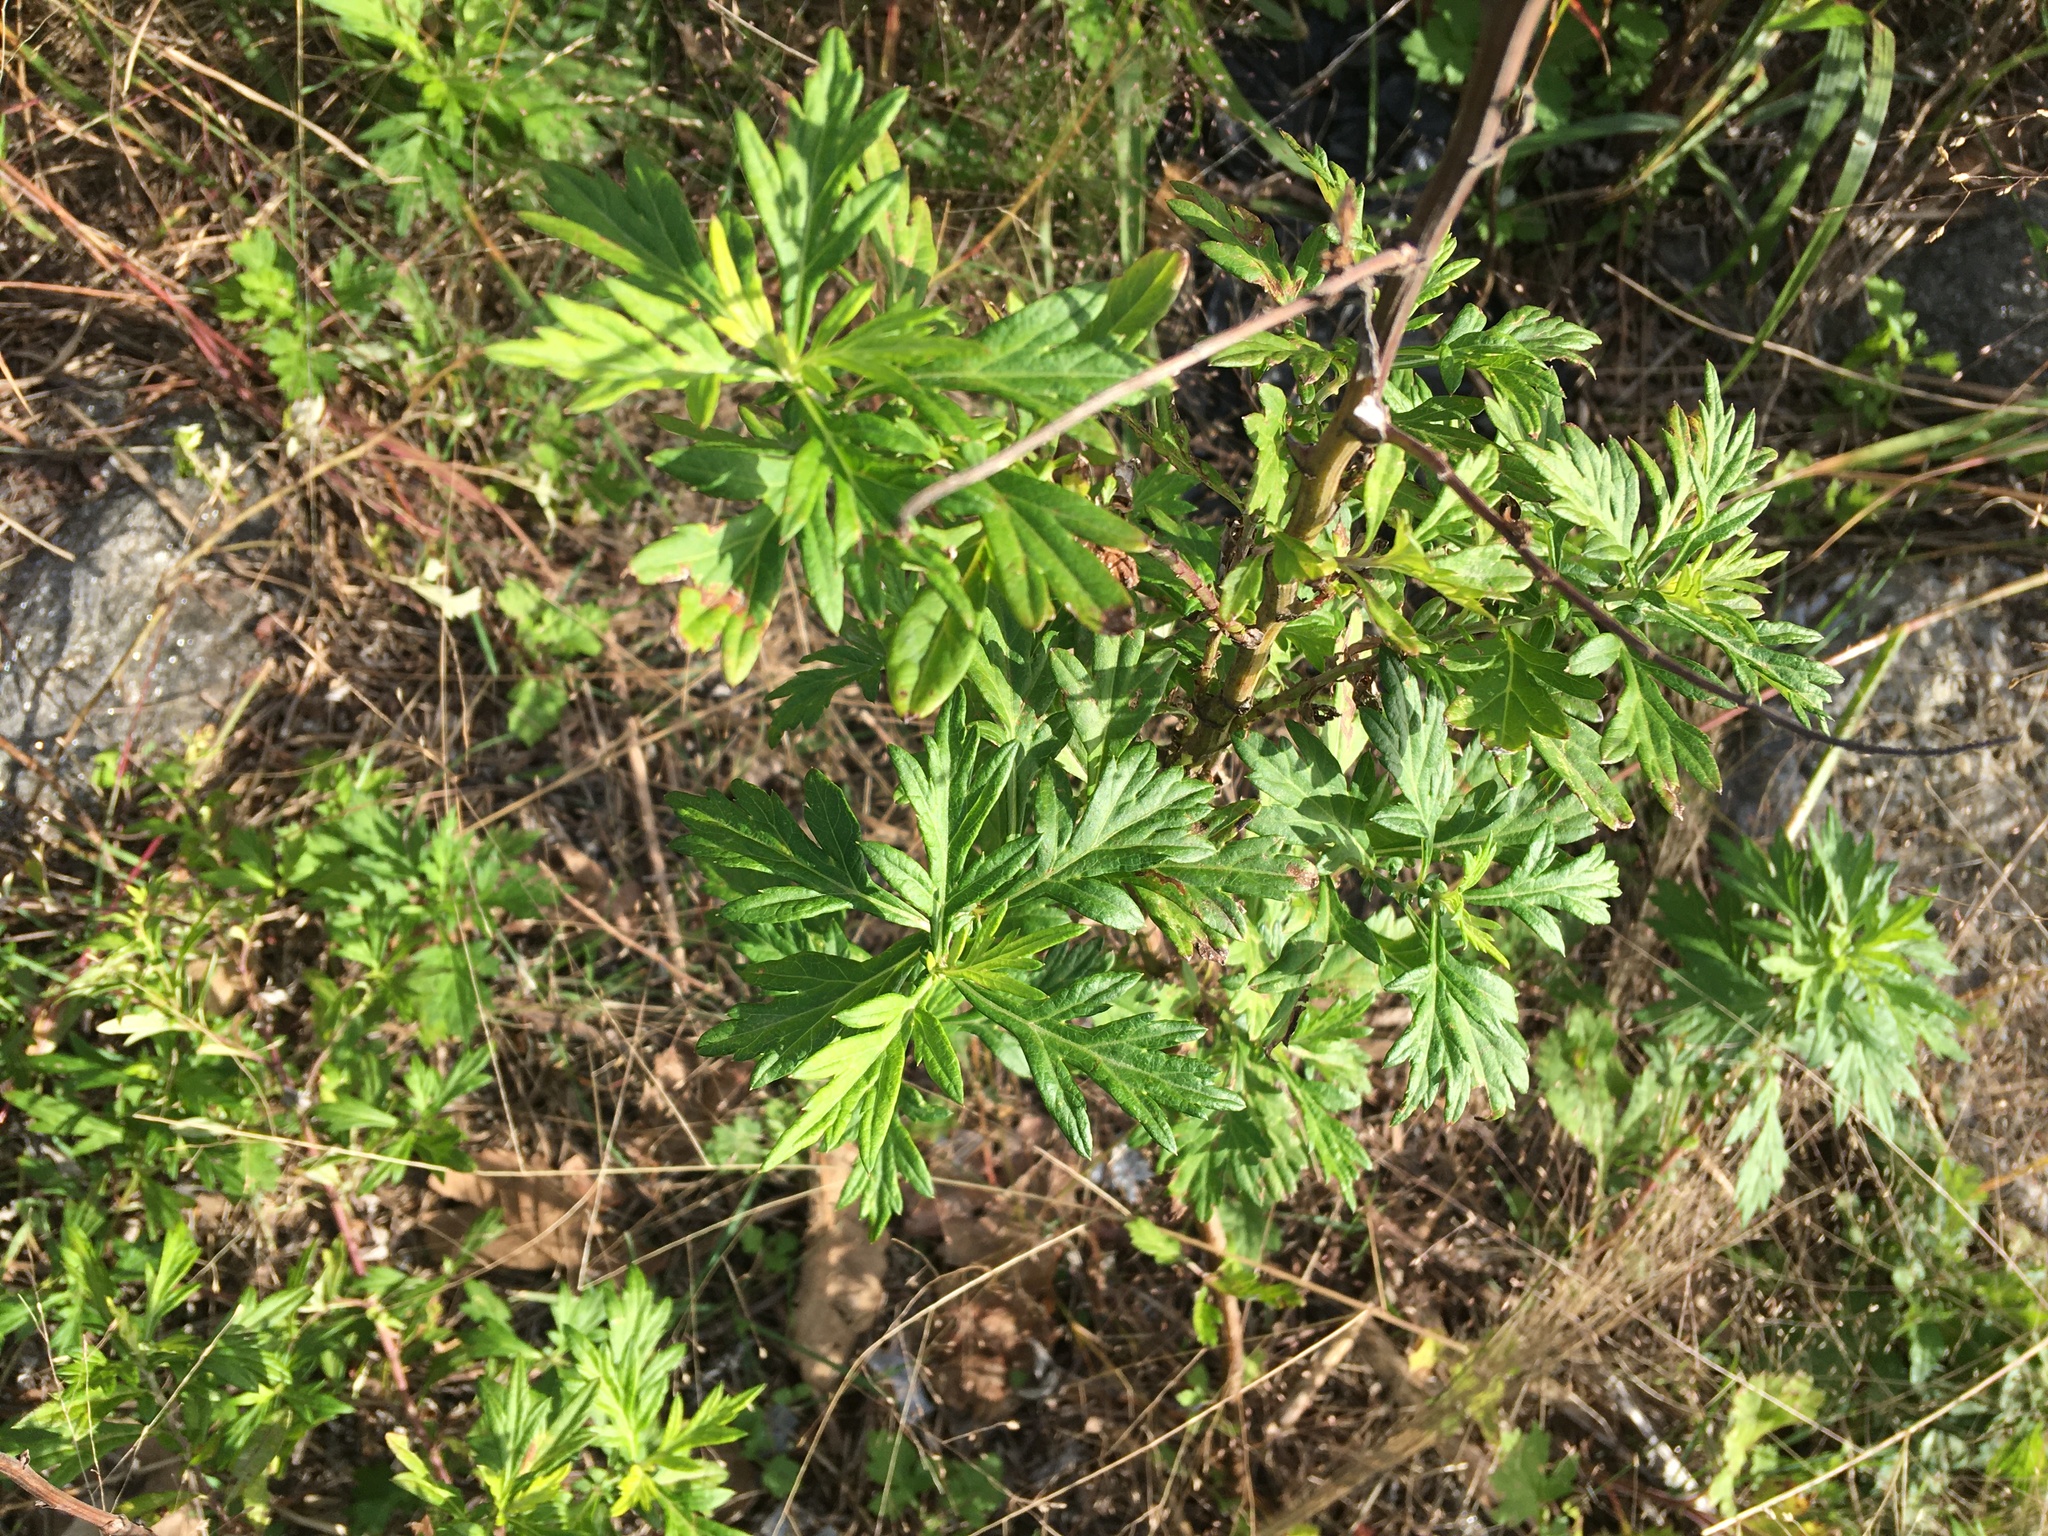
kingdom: Plantae
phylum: Tracheophyta
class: Magnoliopsida
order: Asterales
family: Asteraceae
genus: Artemisia
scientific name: Artemisia vulgaris
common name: Mugwort
